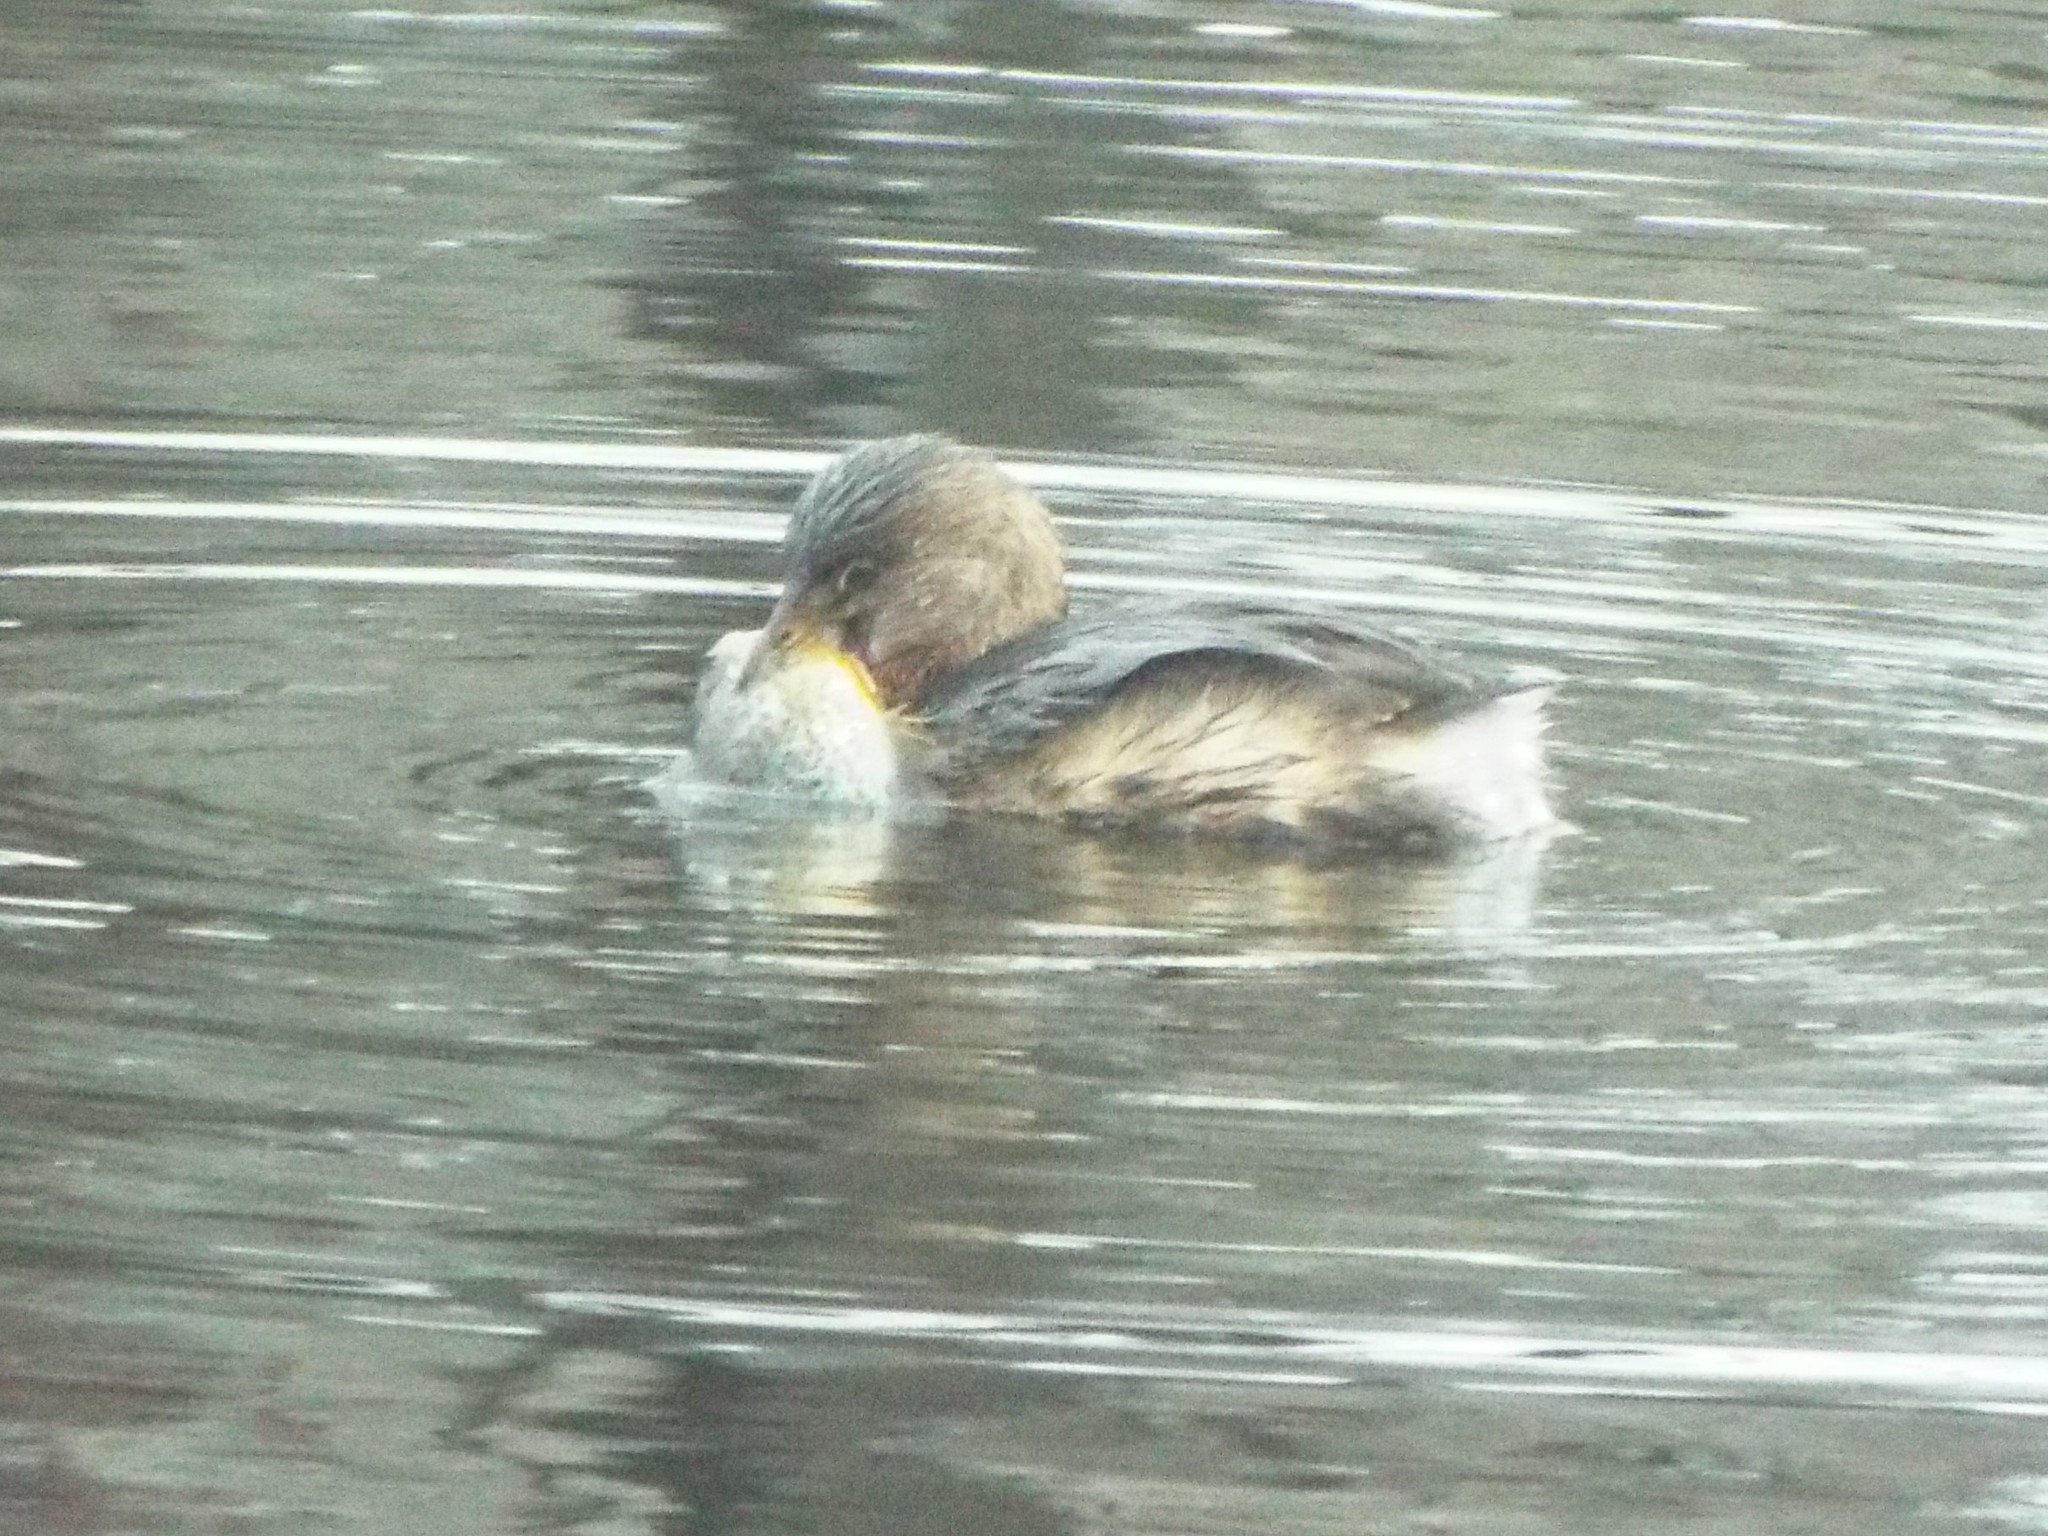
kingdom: Animalia
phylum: Chordata
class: Aves
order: Podicipediformes
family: Podicipedidae
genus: Podilymbus
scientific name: Podilymbus podiceps
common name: Pied-billed grebe
